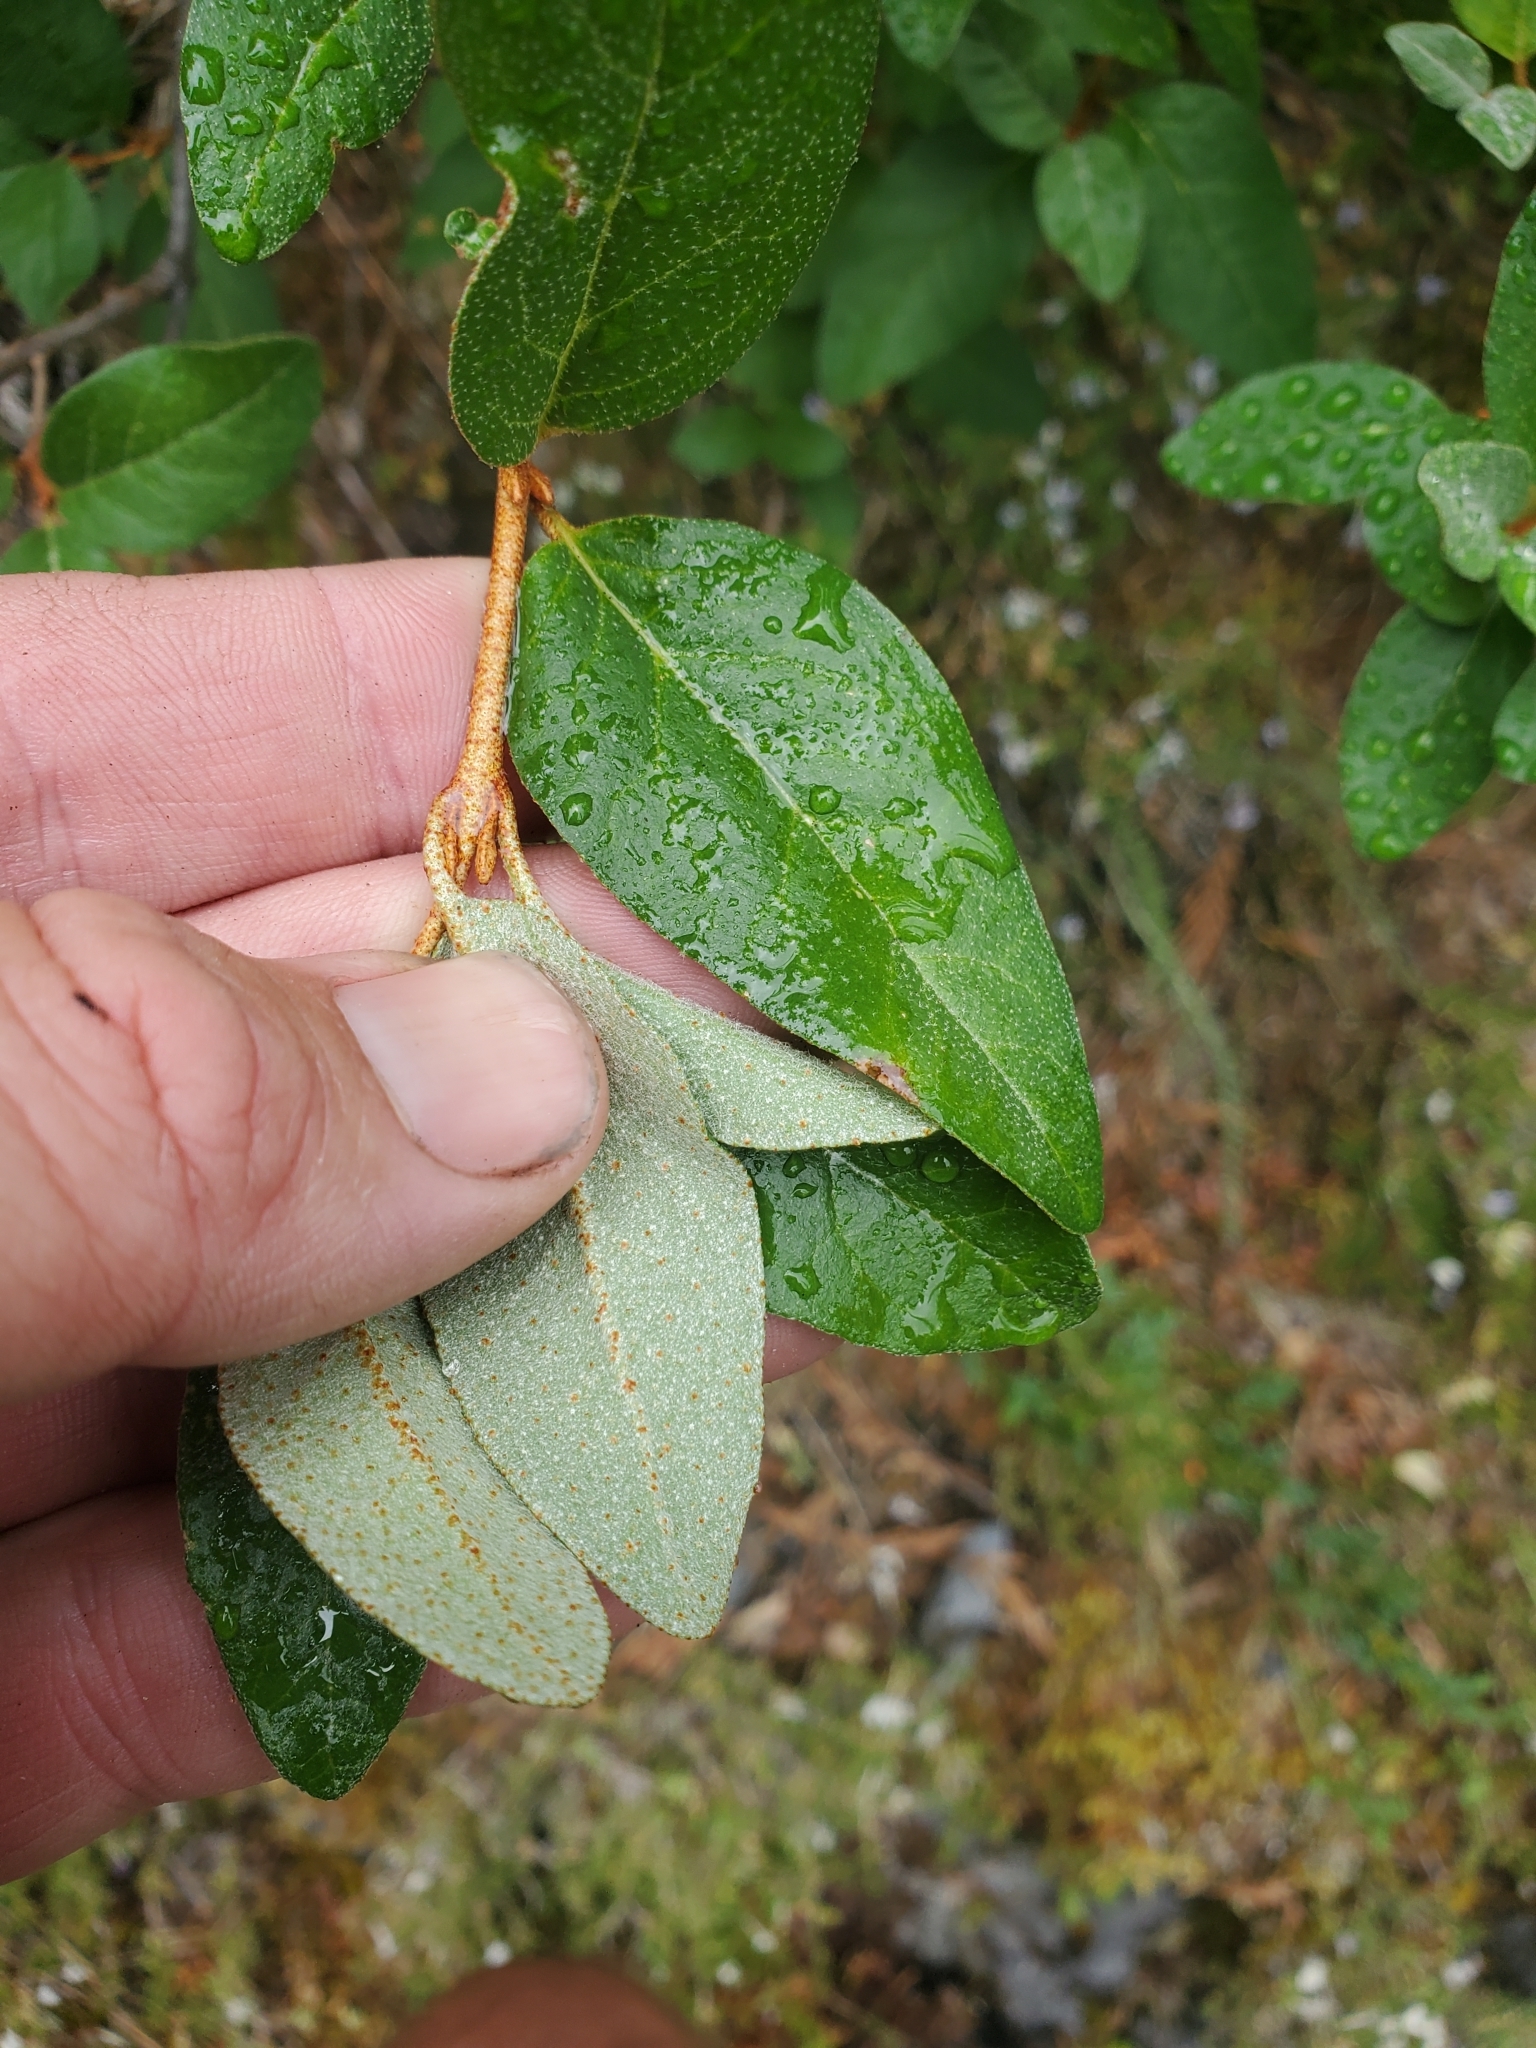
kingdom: Plantae
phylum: Tracheophyta
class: Magnoliopsida
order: Rosales
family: Elaeagnaceae
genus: Shepherdia
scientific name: Shepherdia canadensis
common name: Soapberry
